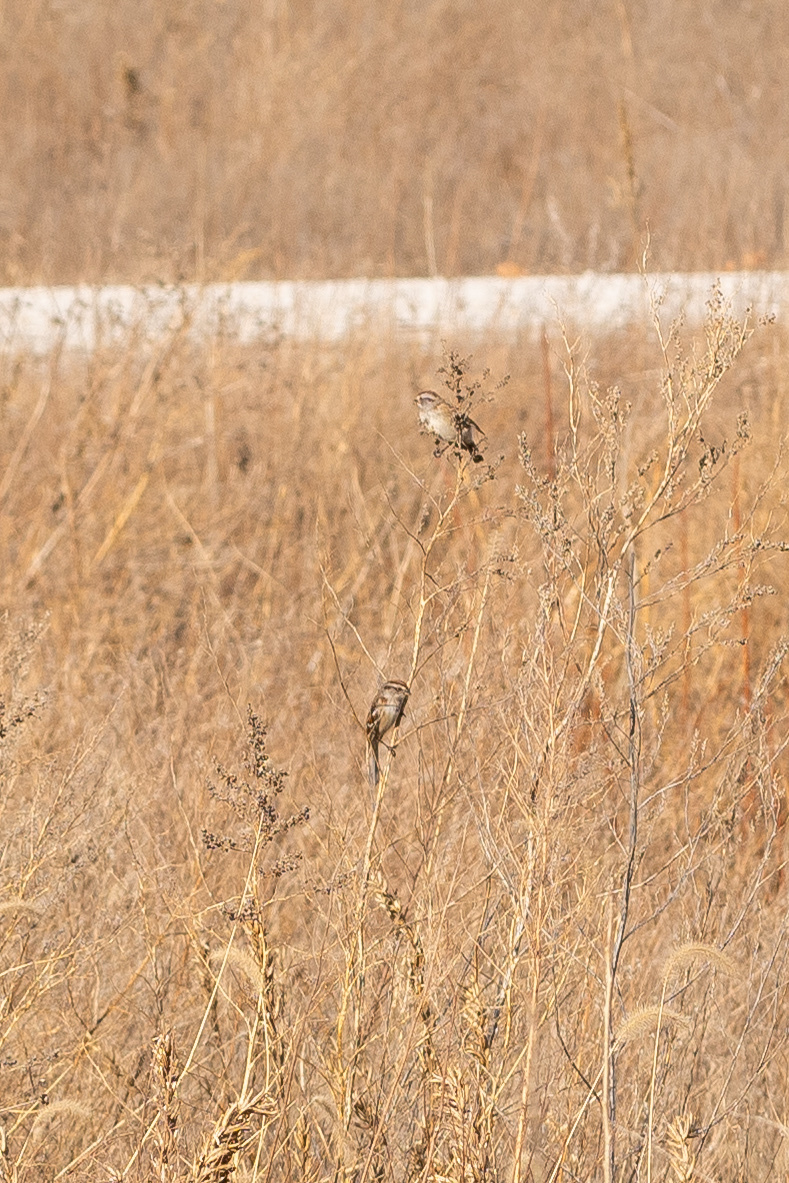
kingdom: Animalia
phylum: Chordata
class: Aves
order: Passeriformes
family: Passerellidae
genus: Spizelloides
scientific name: Spizelloides arborea
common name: American tree sparrow
